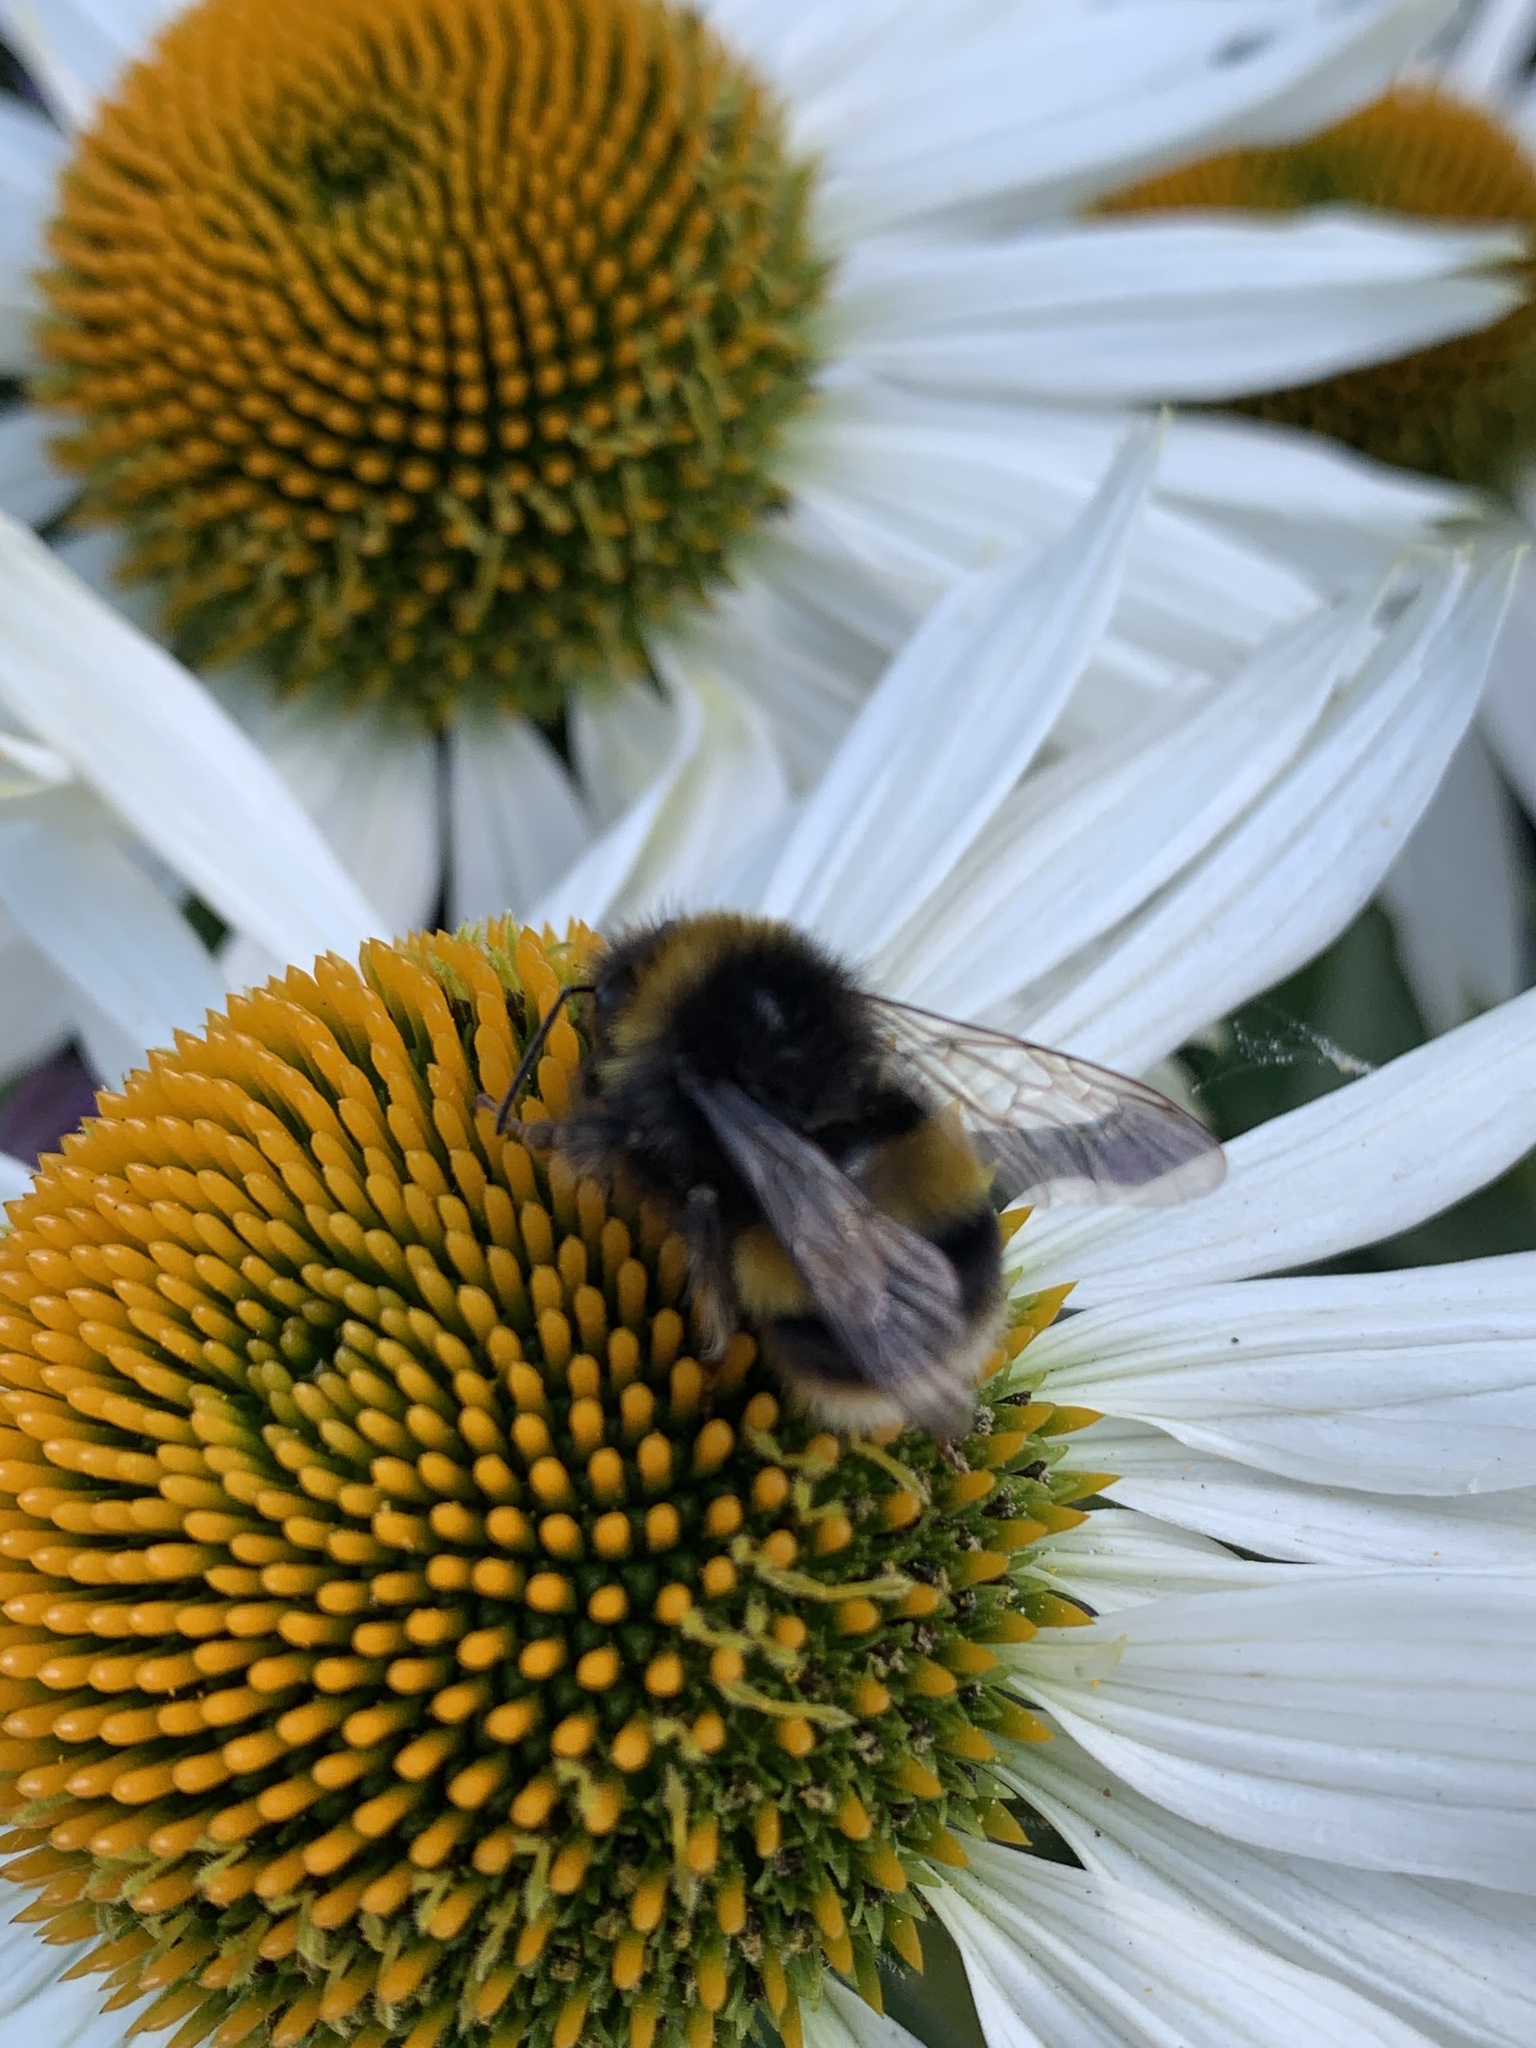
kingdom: Animalia
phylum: Arthropoda
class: Insecta
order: Hymenoptera
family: Apidae
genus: Bombus
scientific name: Bombus terrestris
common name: Buff-tailed bumblebee
